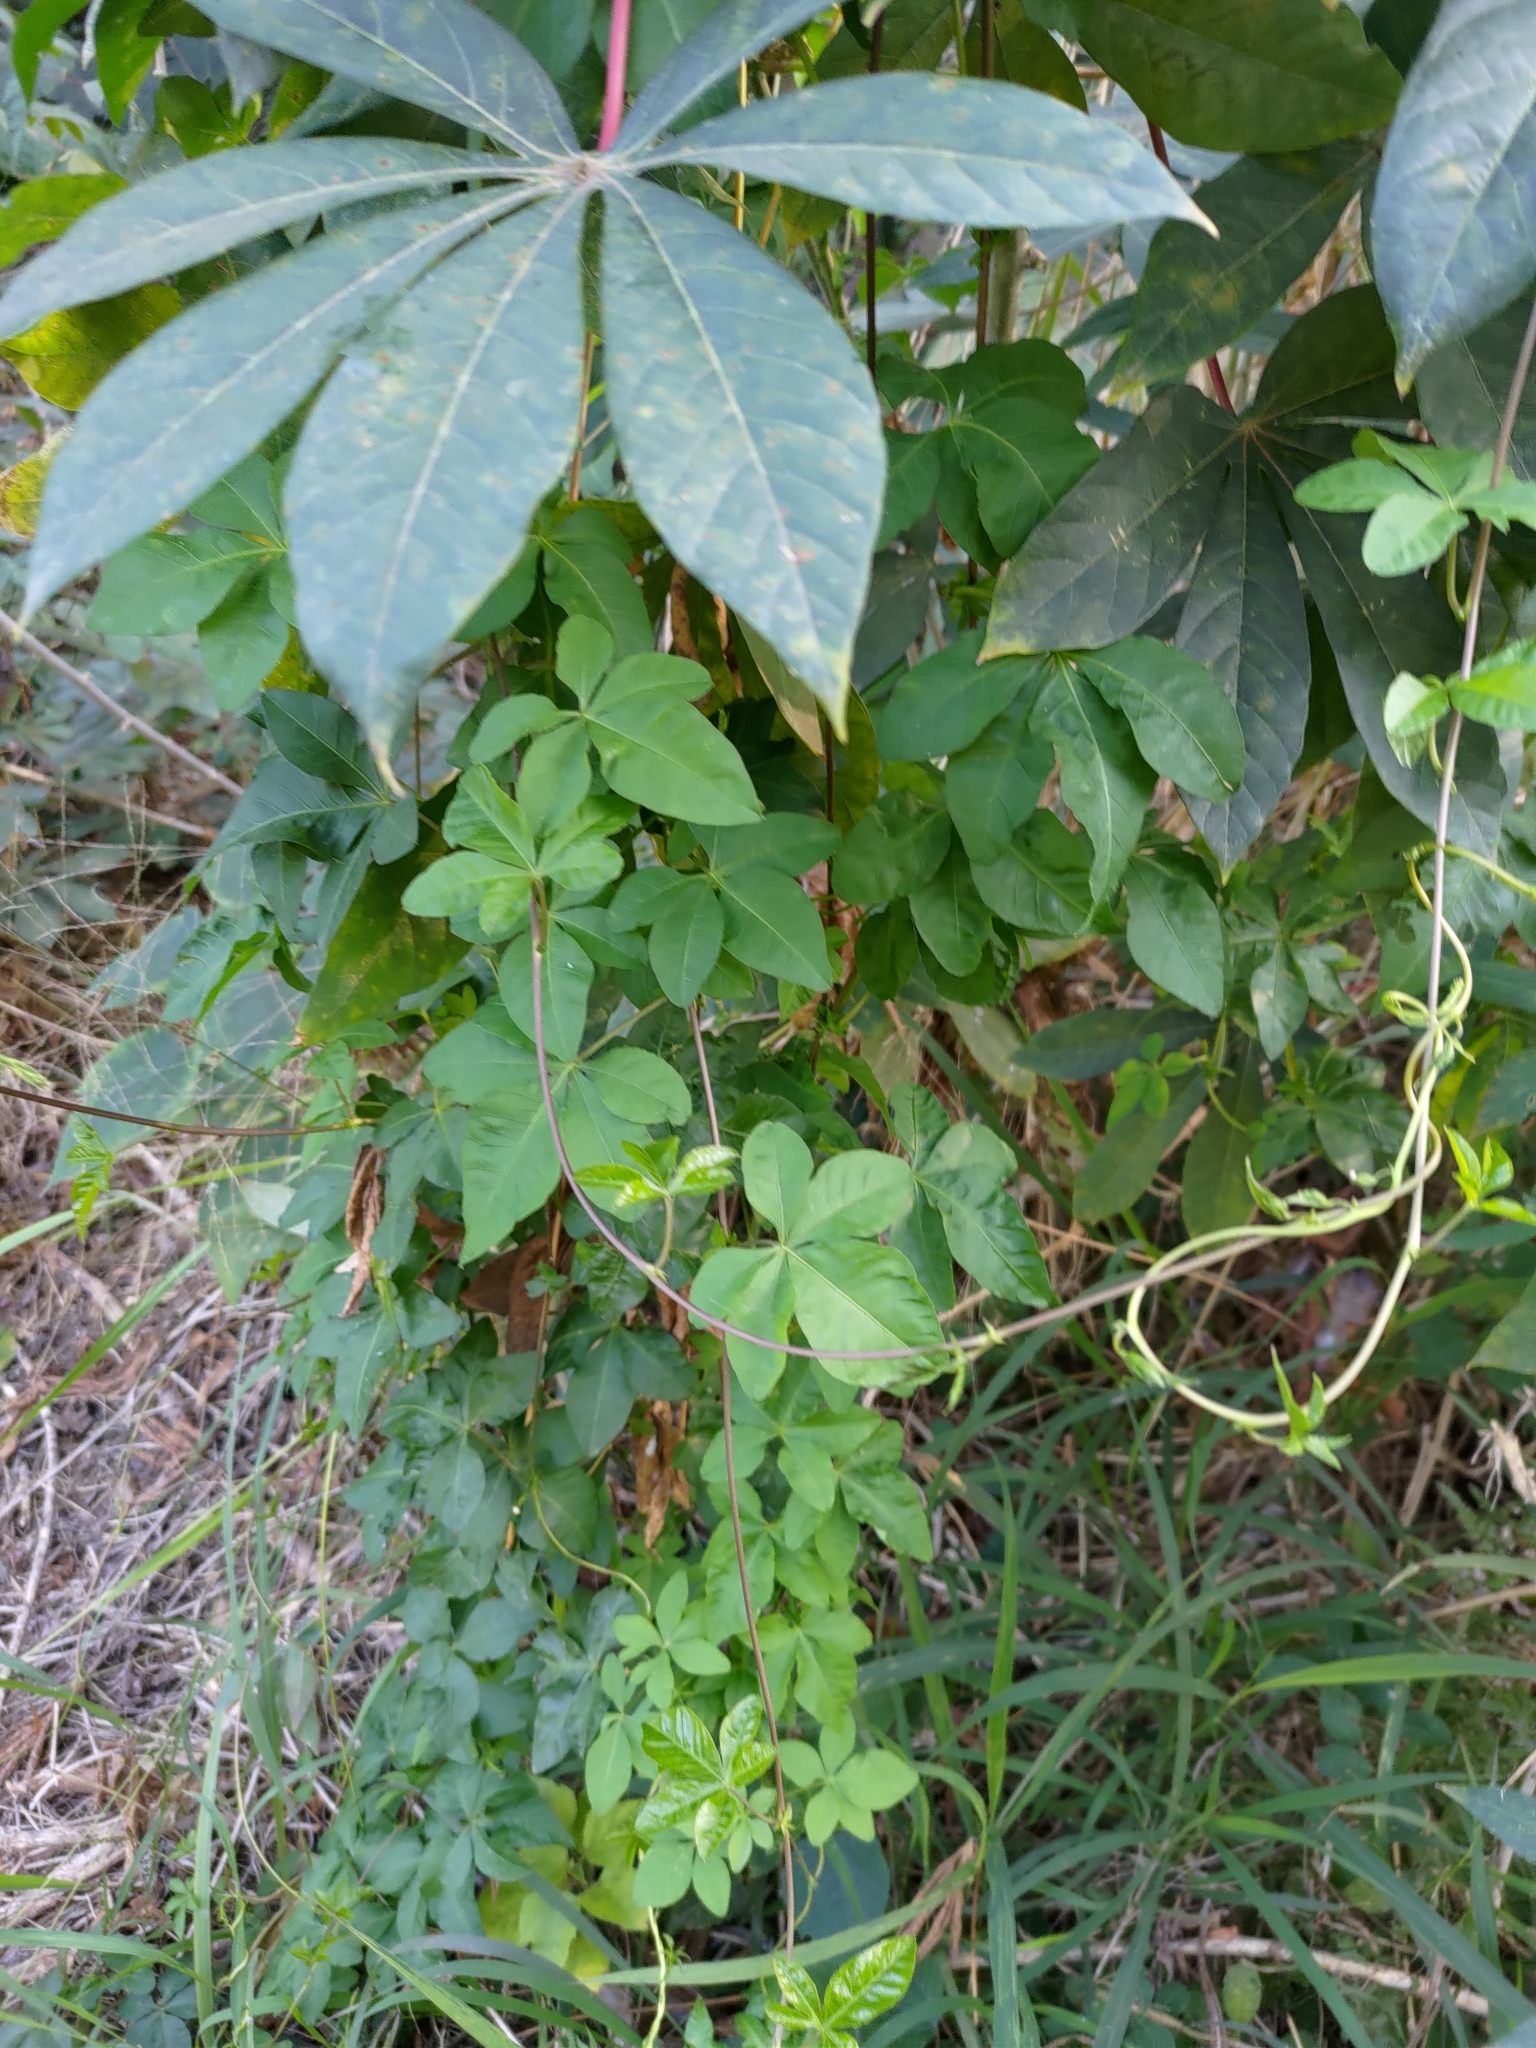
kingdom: Plantae
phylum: Tracheophyta
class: Magnoliopsida
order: Solanales
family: Convolvulaceae
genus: Ipomoea
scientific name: Ipomoea cairica
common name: Mile a minute vine
